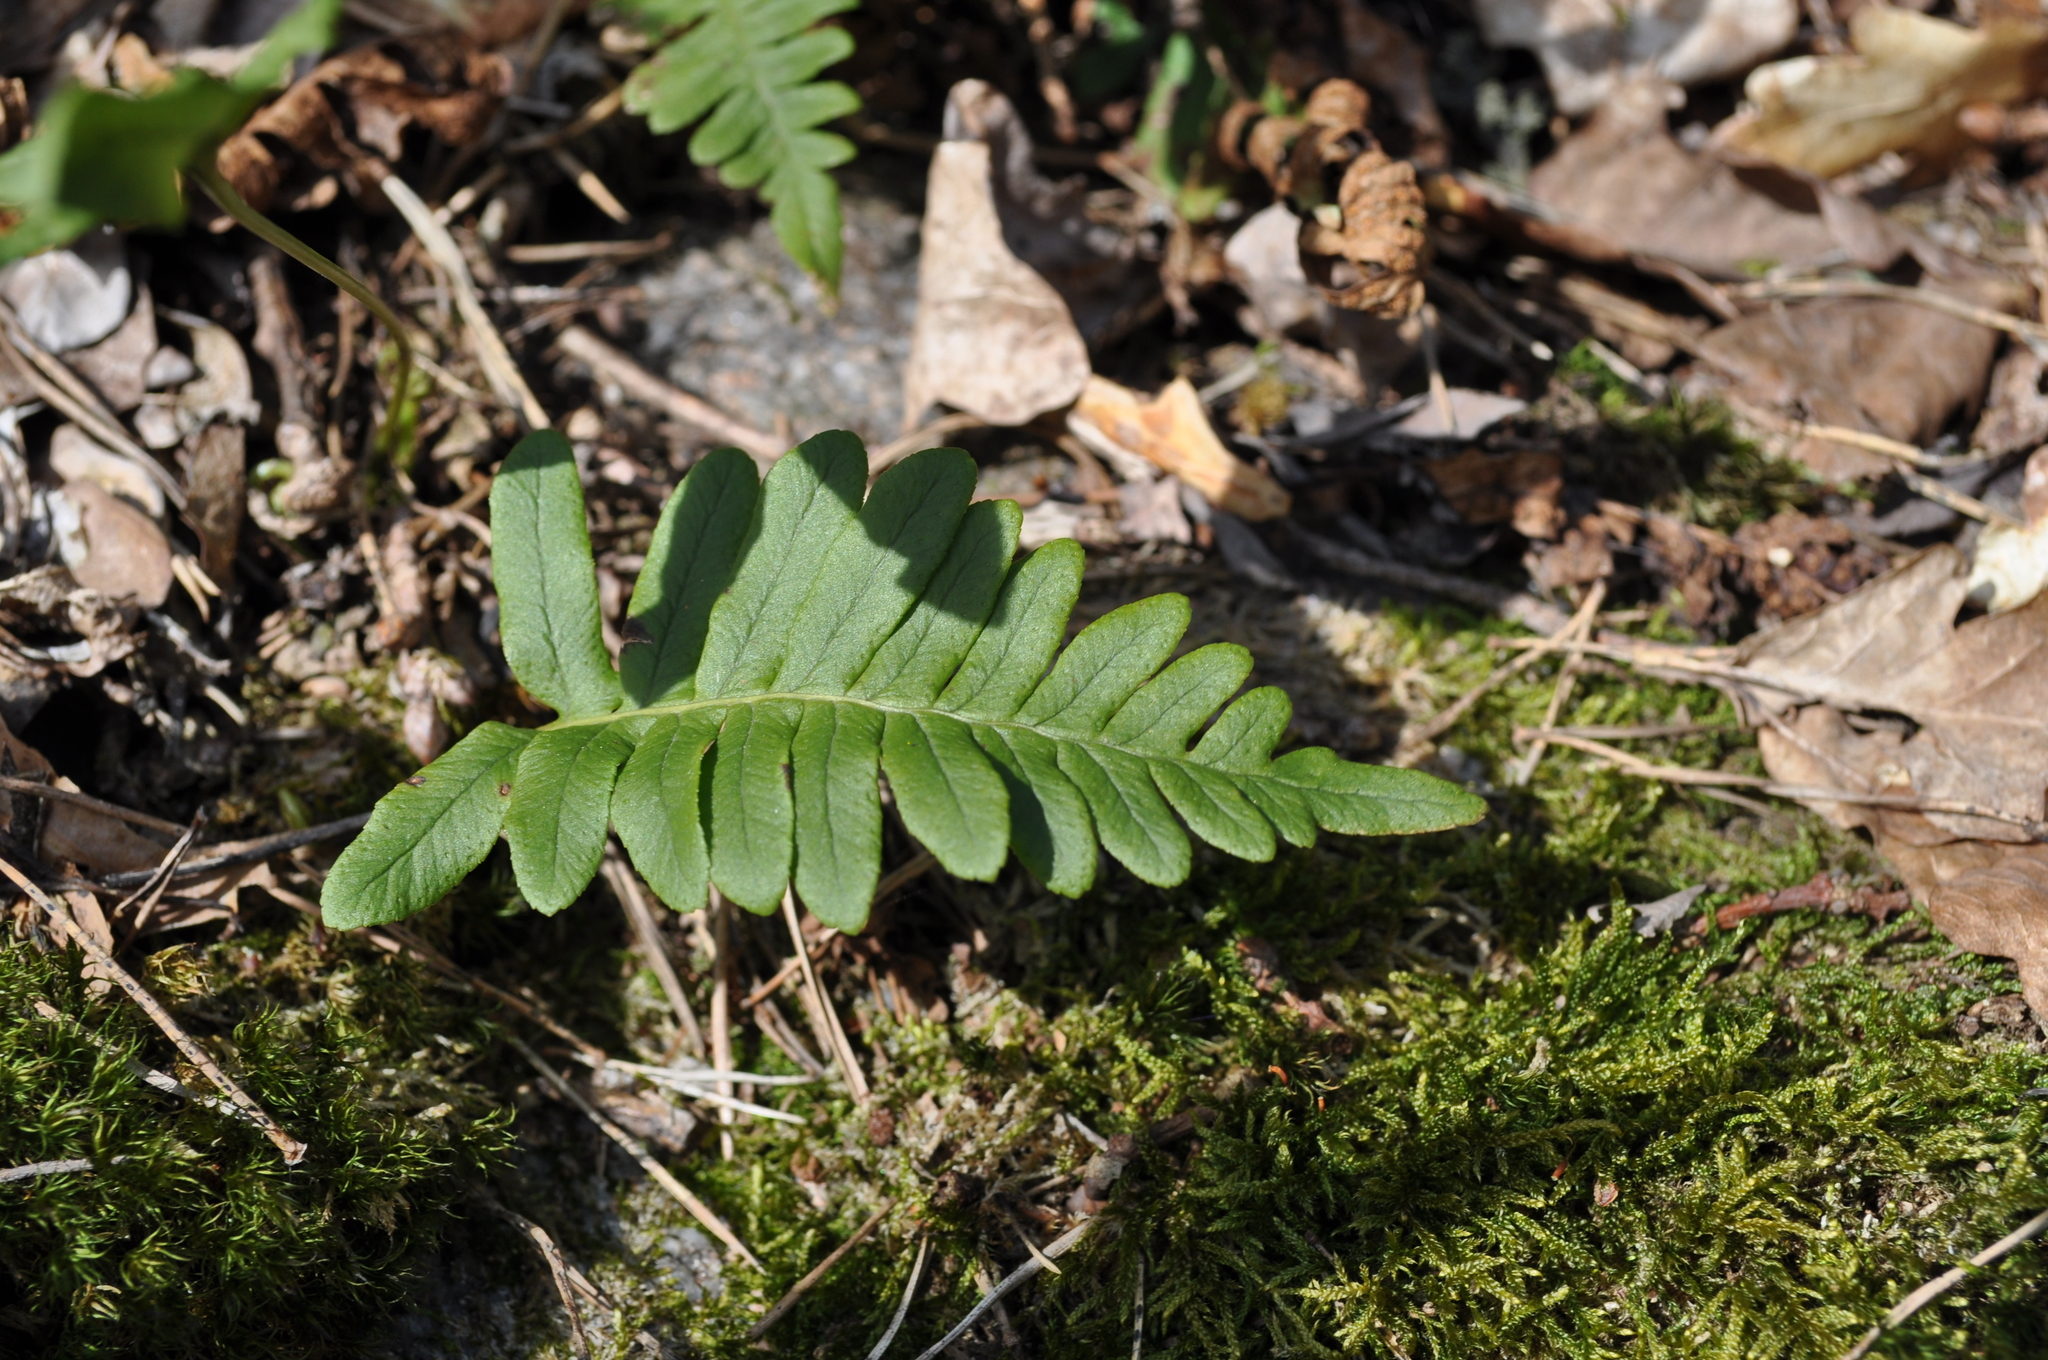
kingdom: Plantae
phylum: Tracheophyta
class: Polypodiopsida
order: Polypodiales
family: Polypodiaceae
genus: Polypodium
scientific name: Polypodium vulgare
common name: Common polypody
